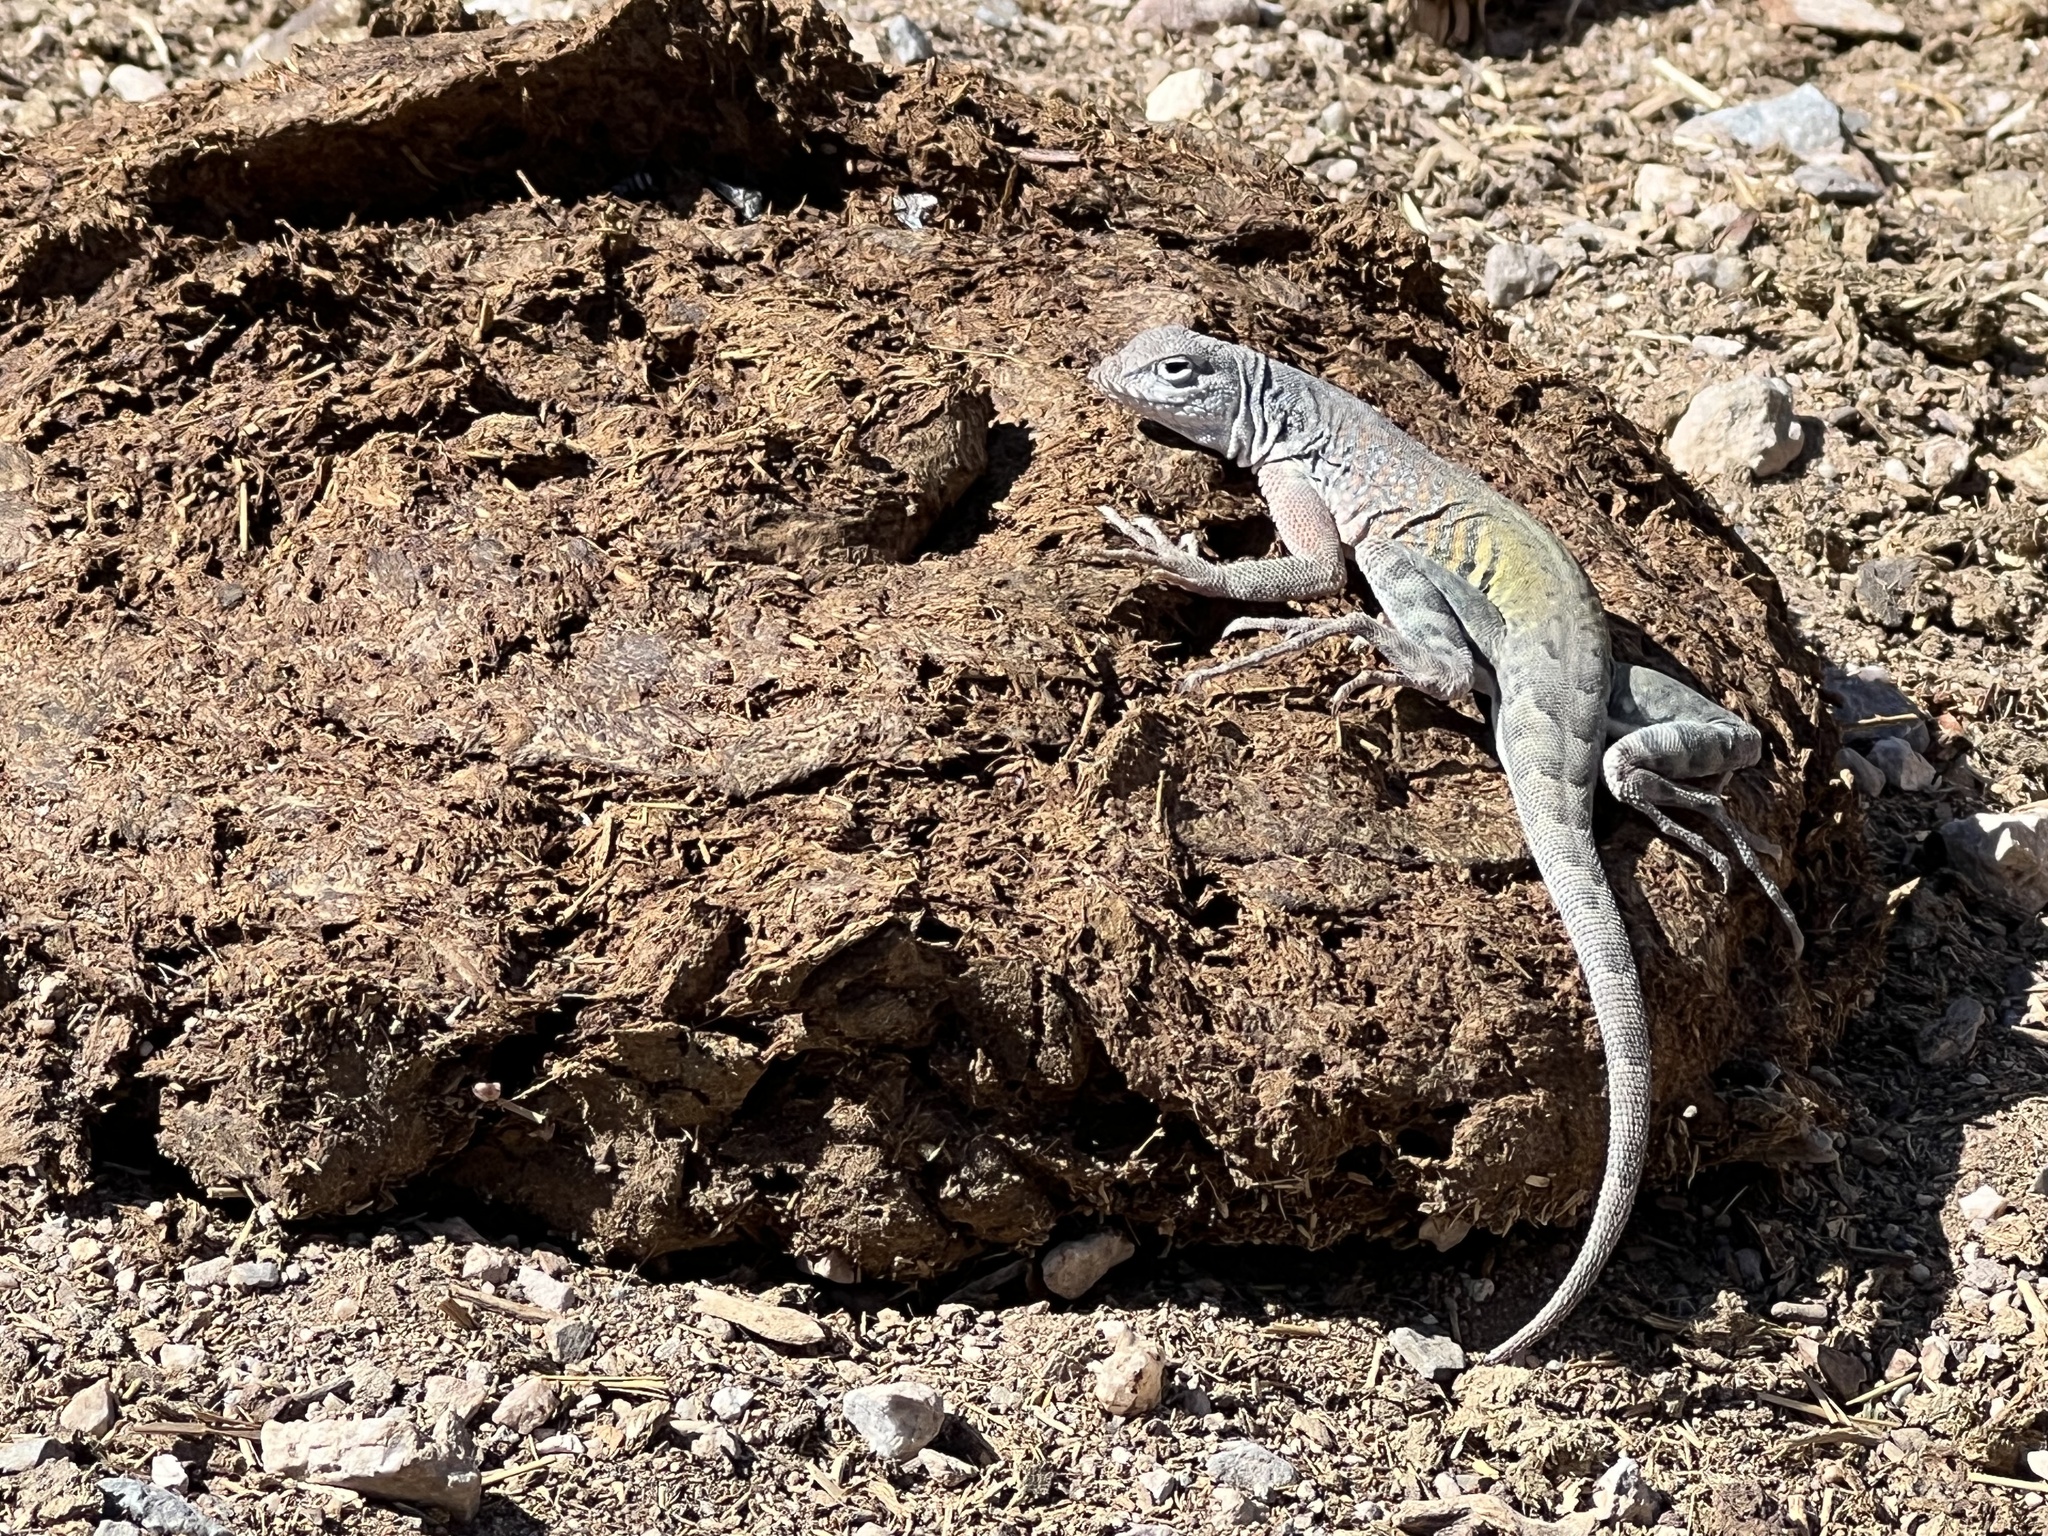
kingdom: Animalia
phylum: Chordata
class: Squamata
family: Phrynosomatidae
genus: Cophosaurus
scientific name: Cophosaurus texanus
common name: Greater earless lizard
